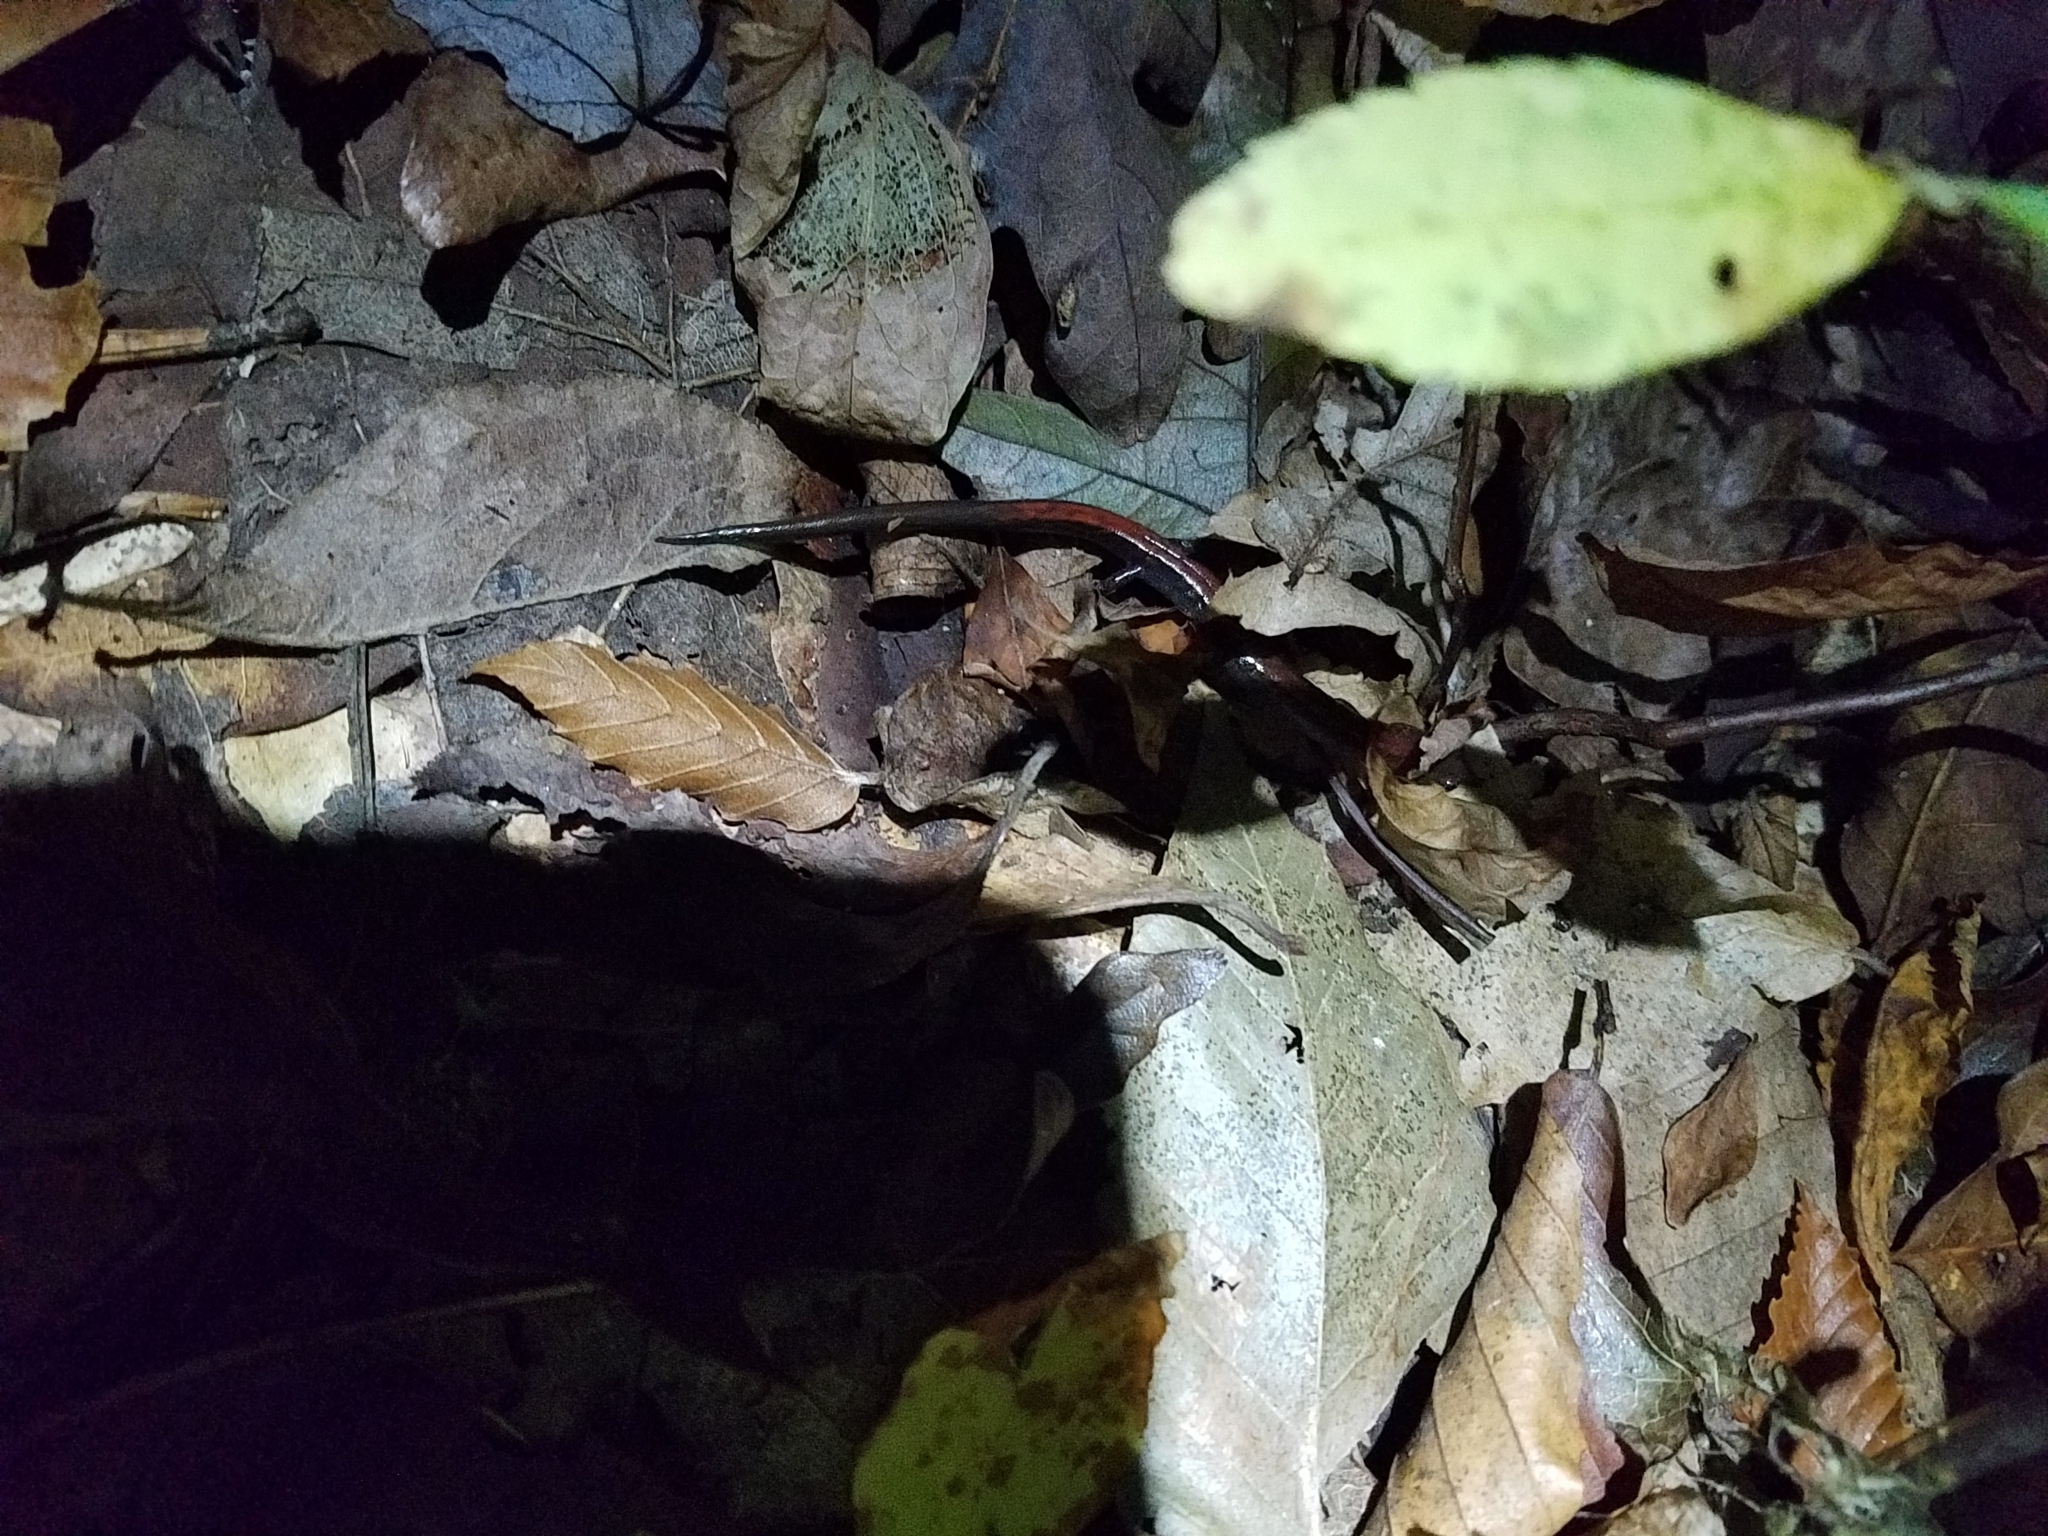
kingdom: Animalia
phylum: Chordata
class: Amphibia
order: Caudata
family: Plethodontidae
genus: Plethodon
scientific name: Plethodon cinereus
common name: Redback salamander
